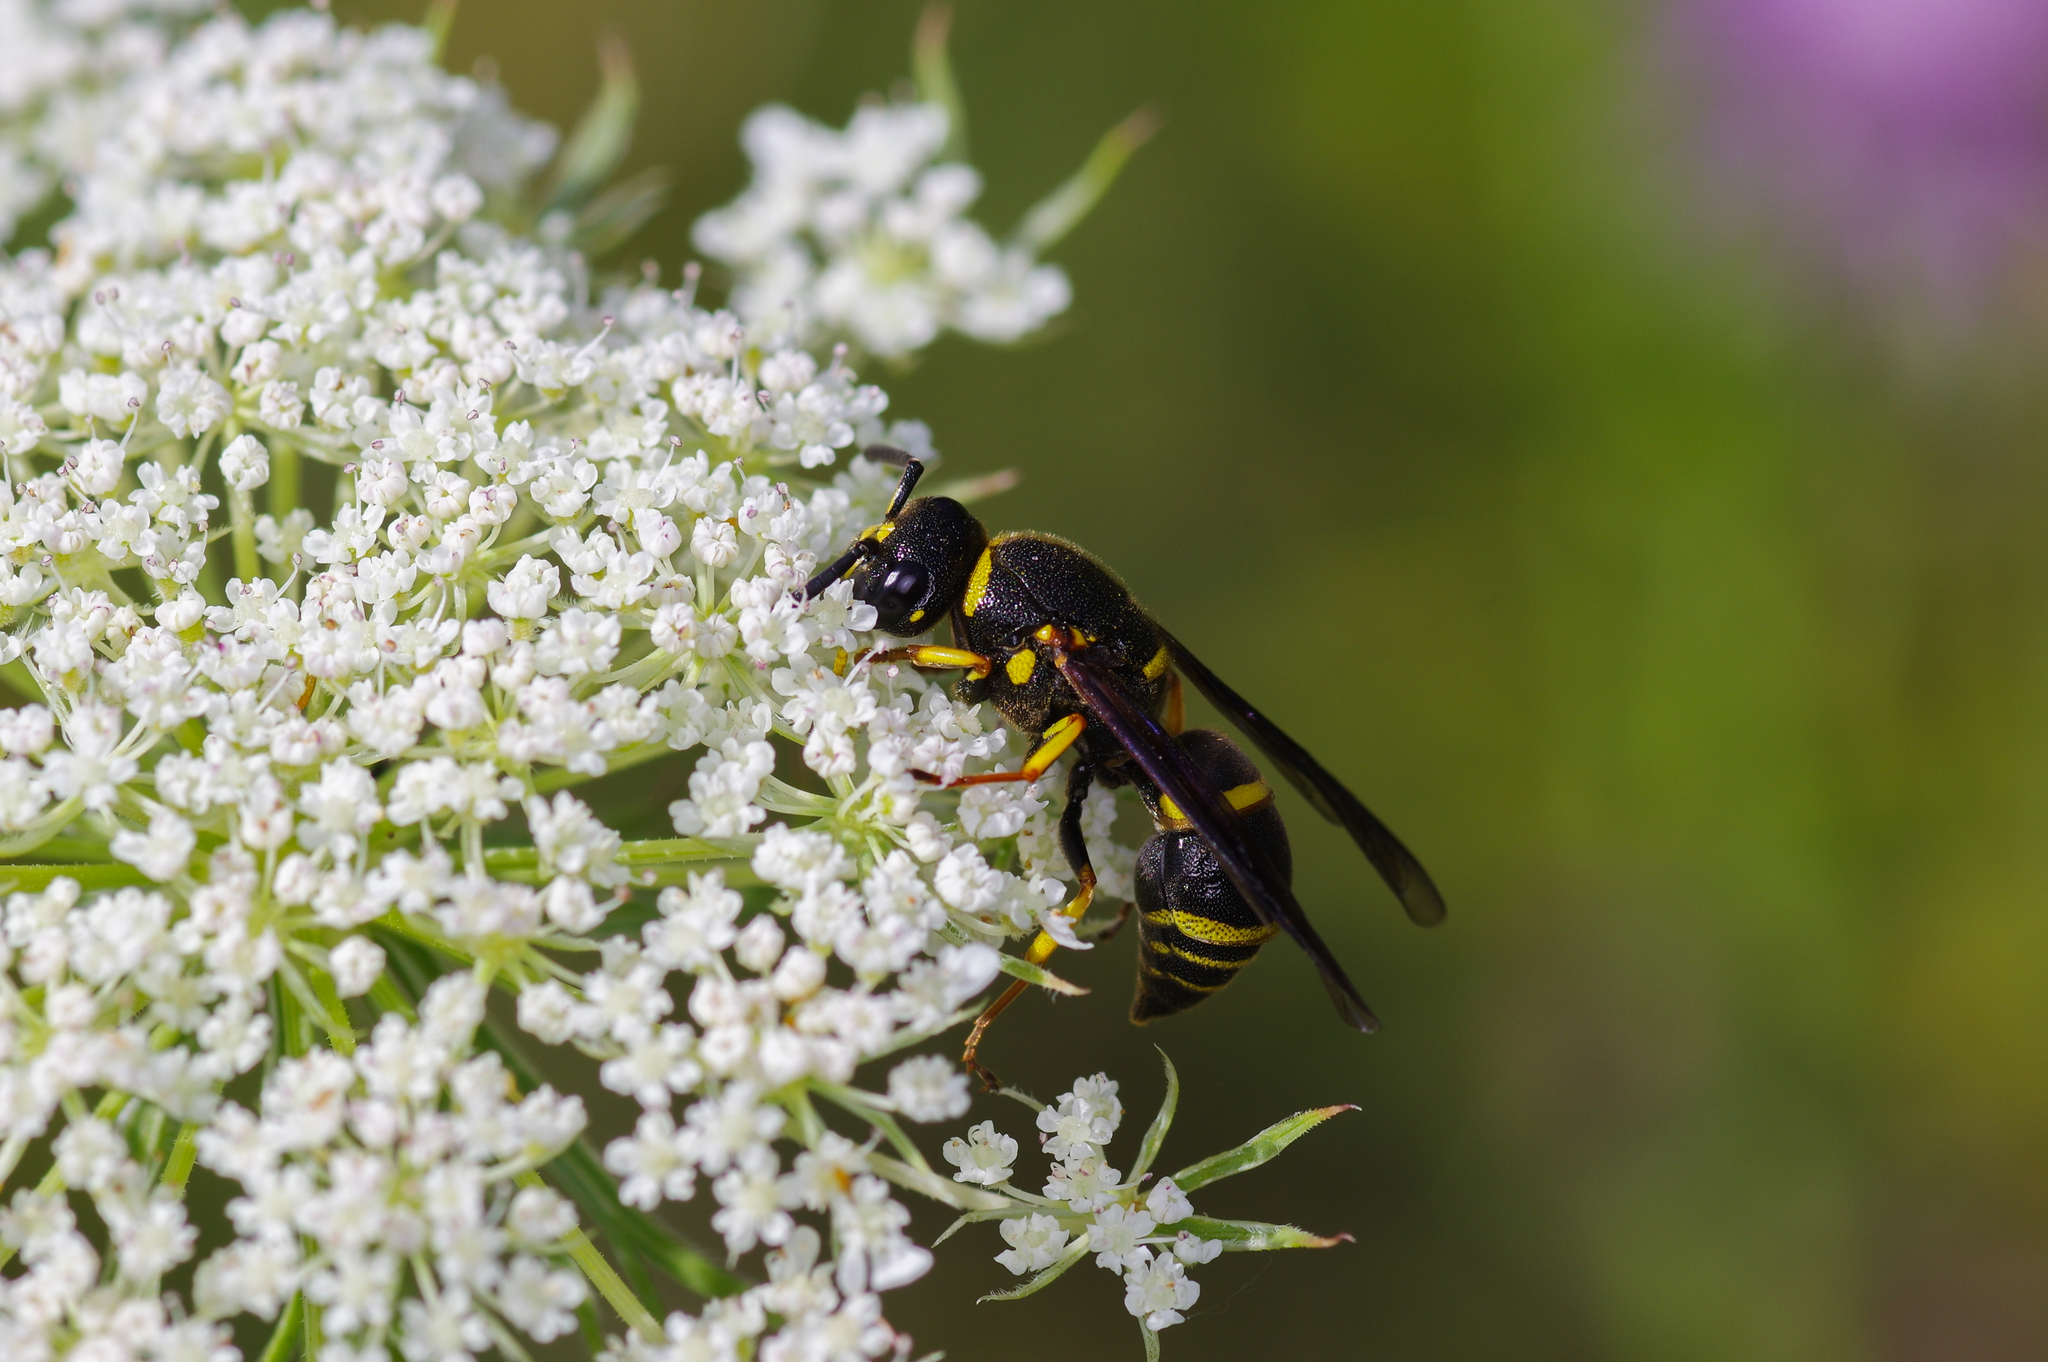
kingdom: Animalia
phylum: Arthropoda
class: Insecta
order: Hymenoptera
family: Eumenidae
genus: Euodynerus
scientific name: Euodynerus foraminatus
